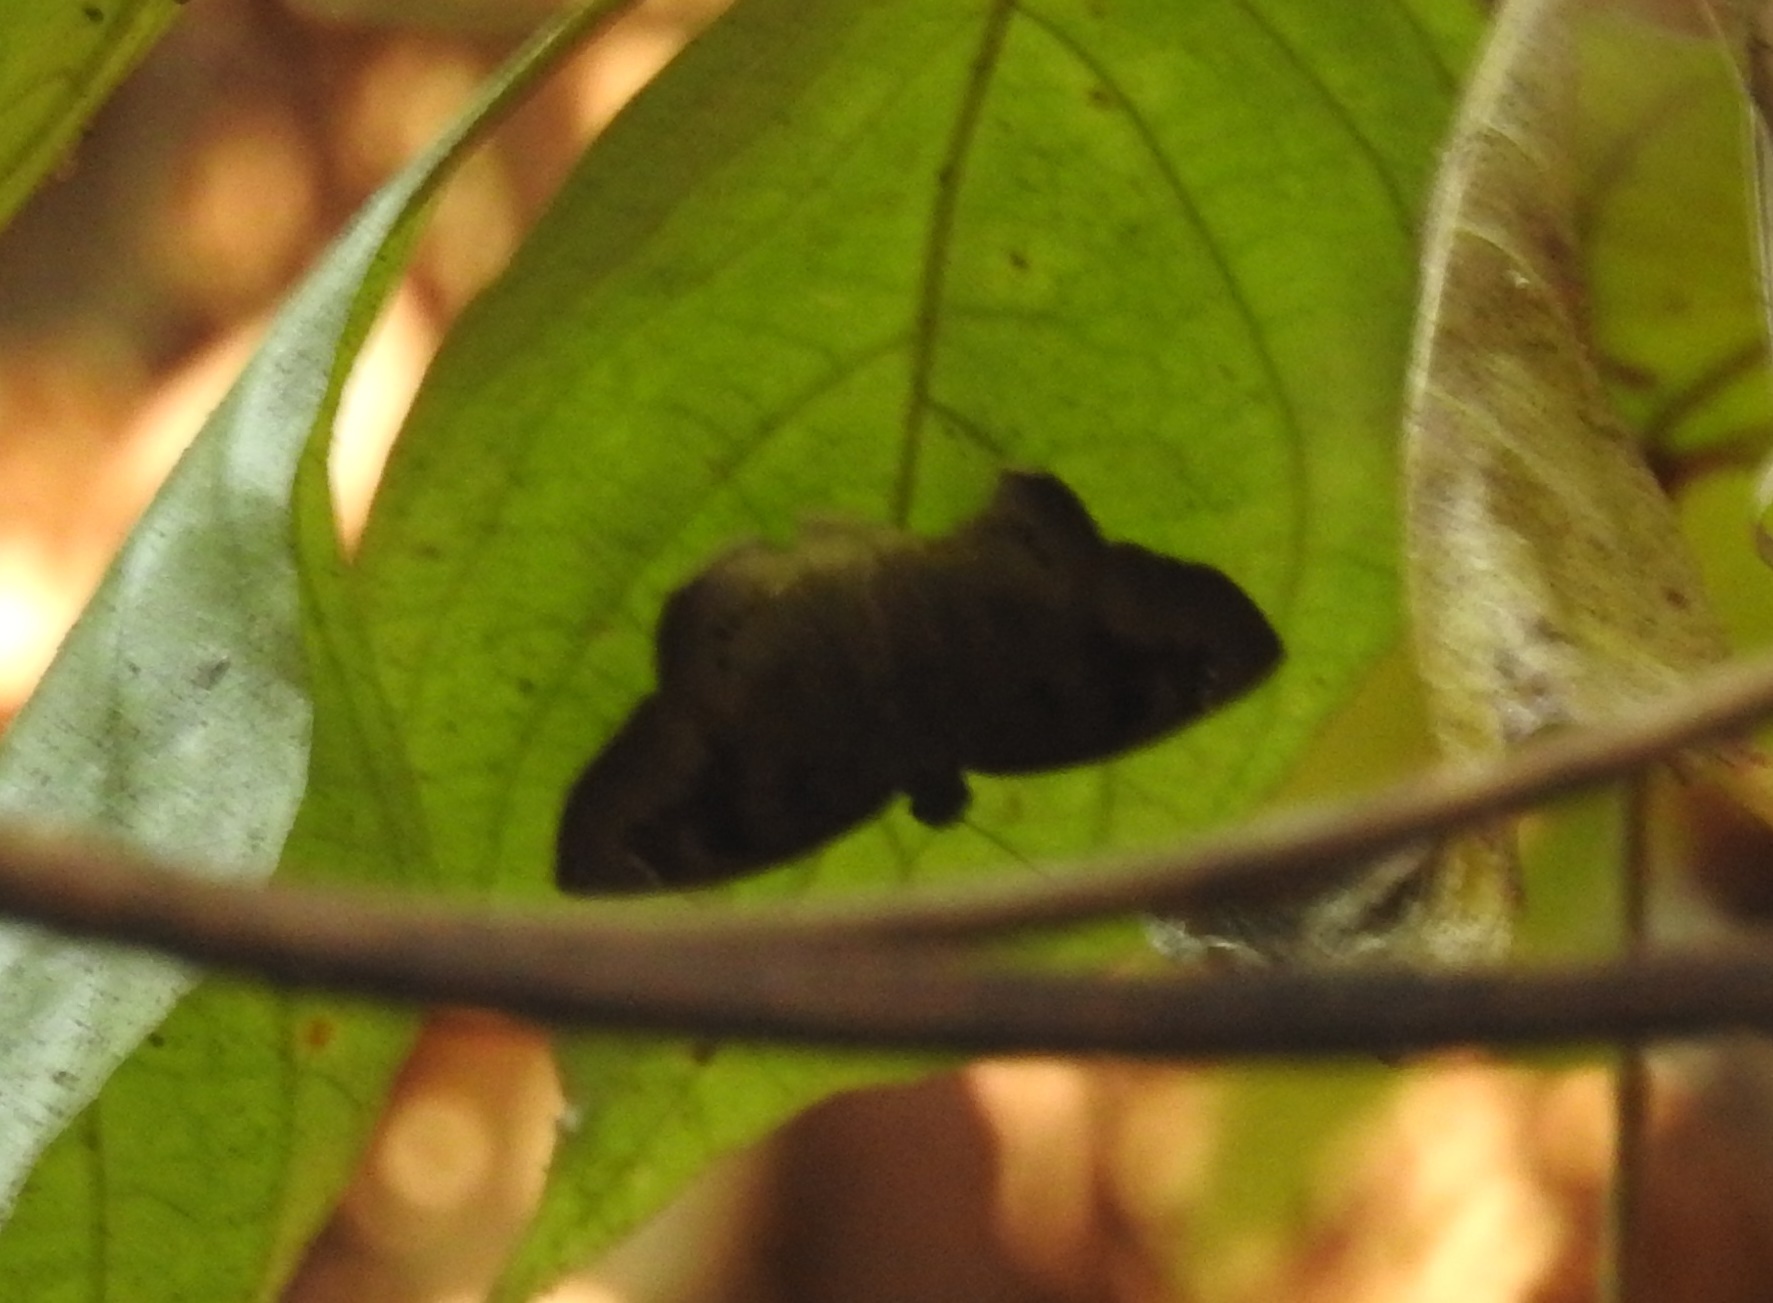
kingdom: Animalia
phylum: Arthropoda
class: Insecta
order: Lepidoptera
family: Hesperiidae
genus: Tagiades
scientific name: Tagiades japetus
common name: Pied flat
